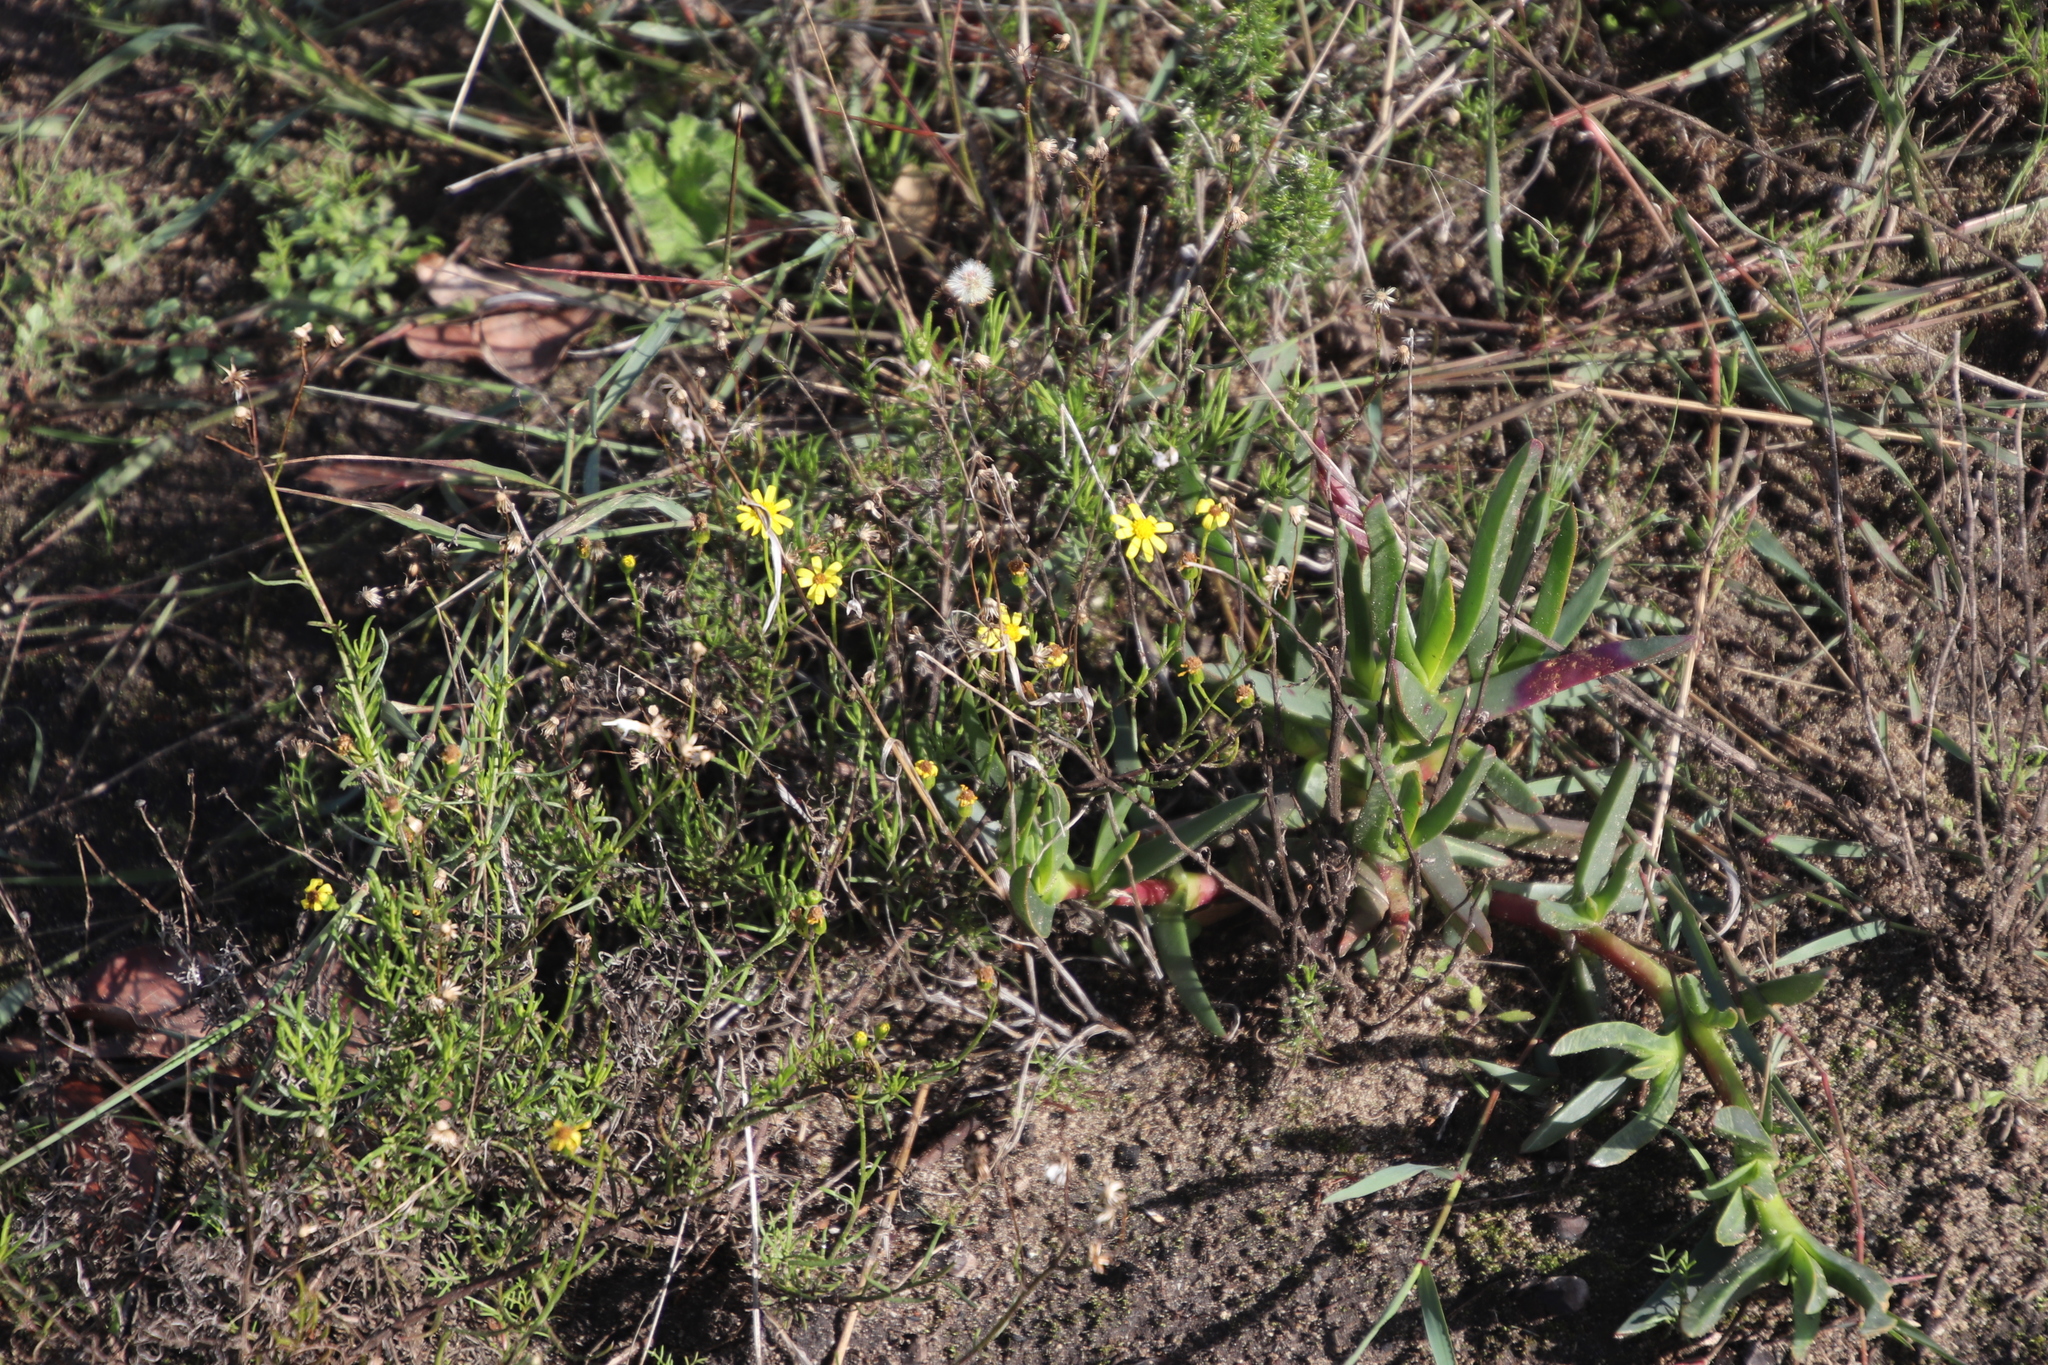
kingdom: Plantae
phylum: Tracheophyta
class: Magnoliopsida
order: Asterales
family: Asteraceae
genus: Senecio
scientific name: Senecio burchellii
